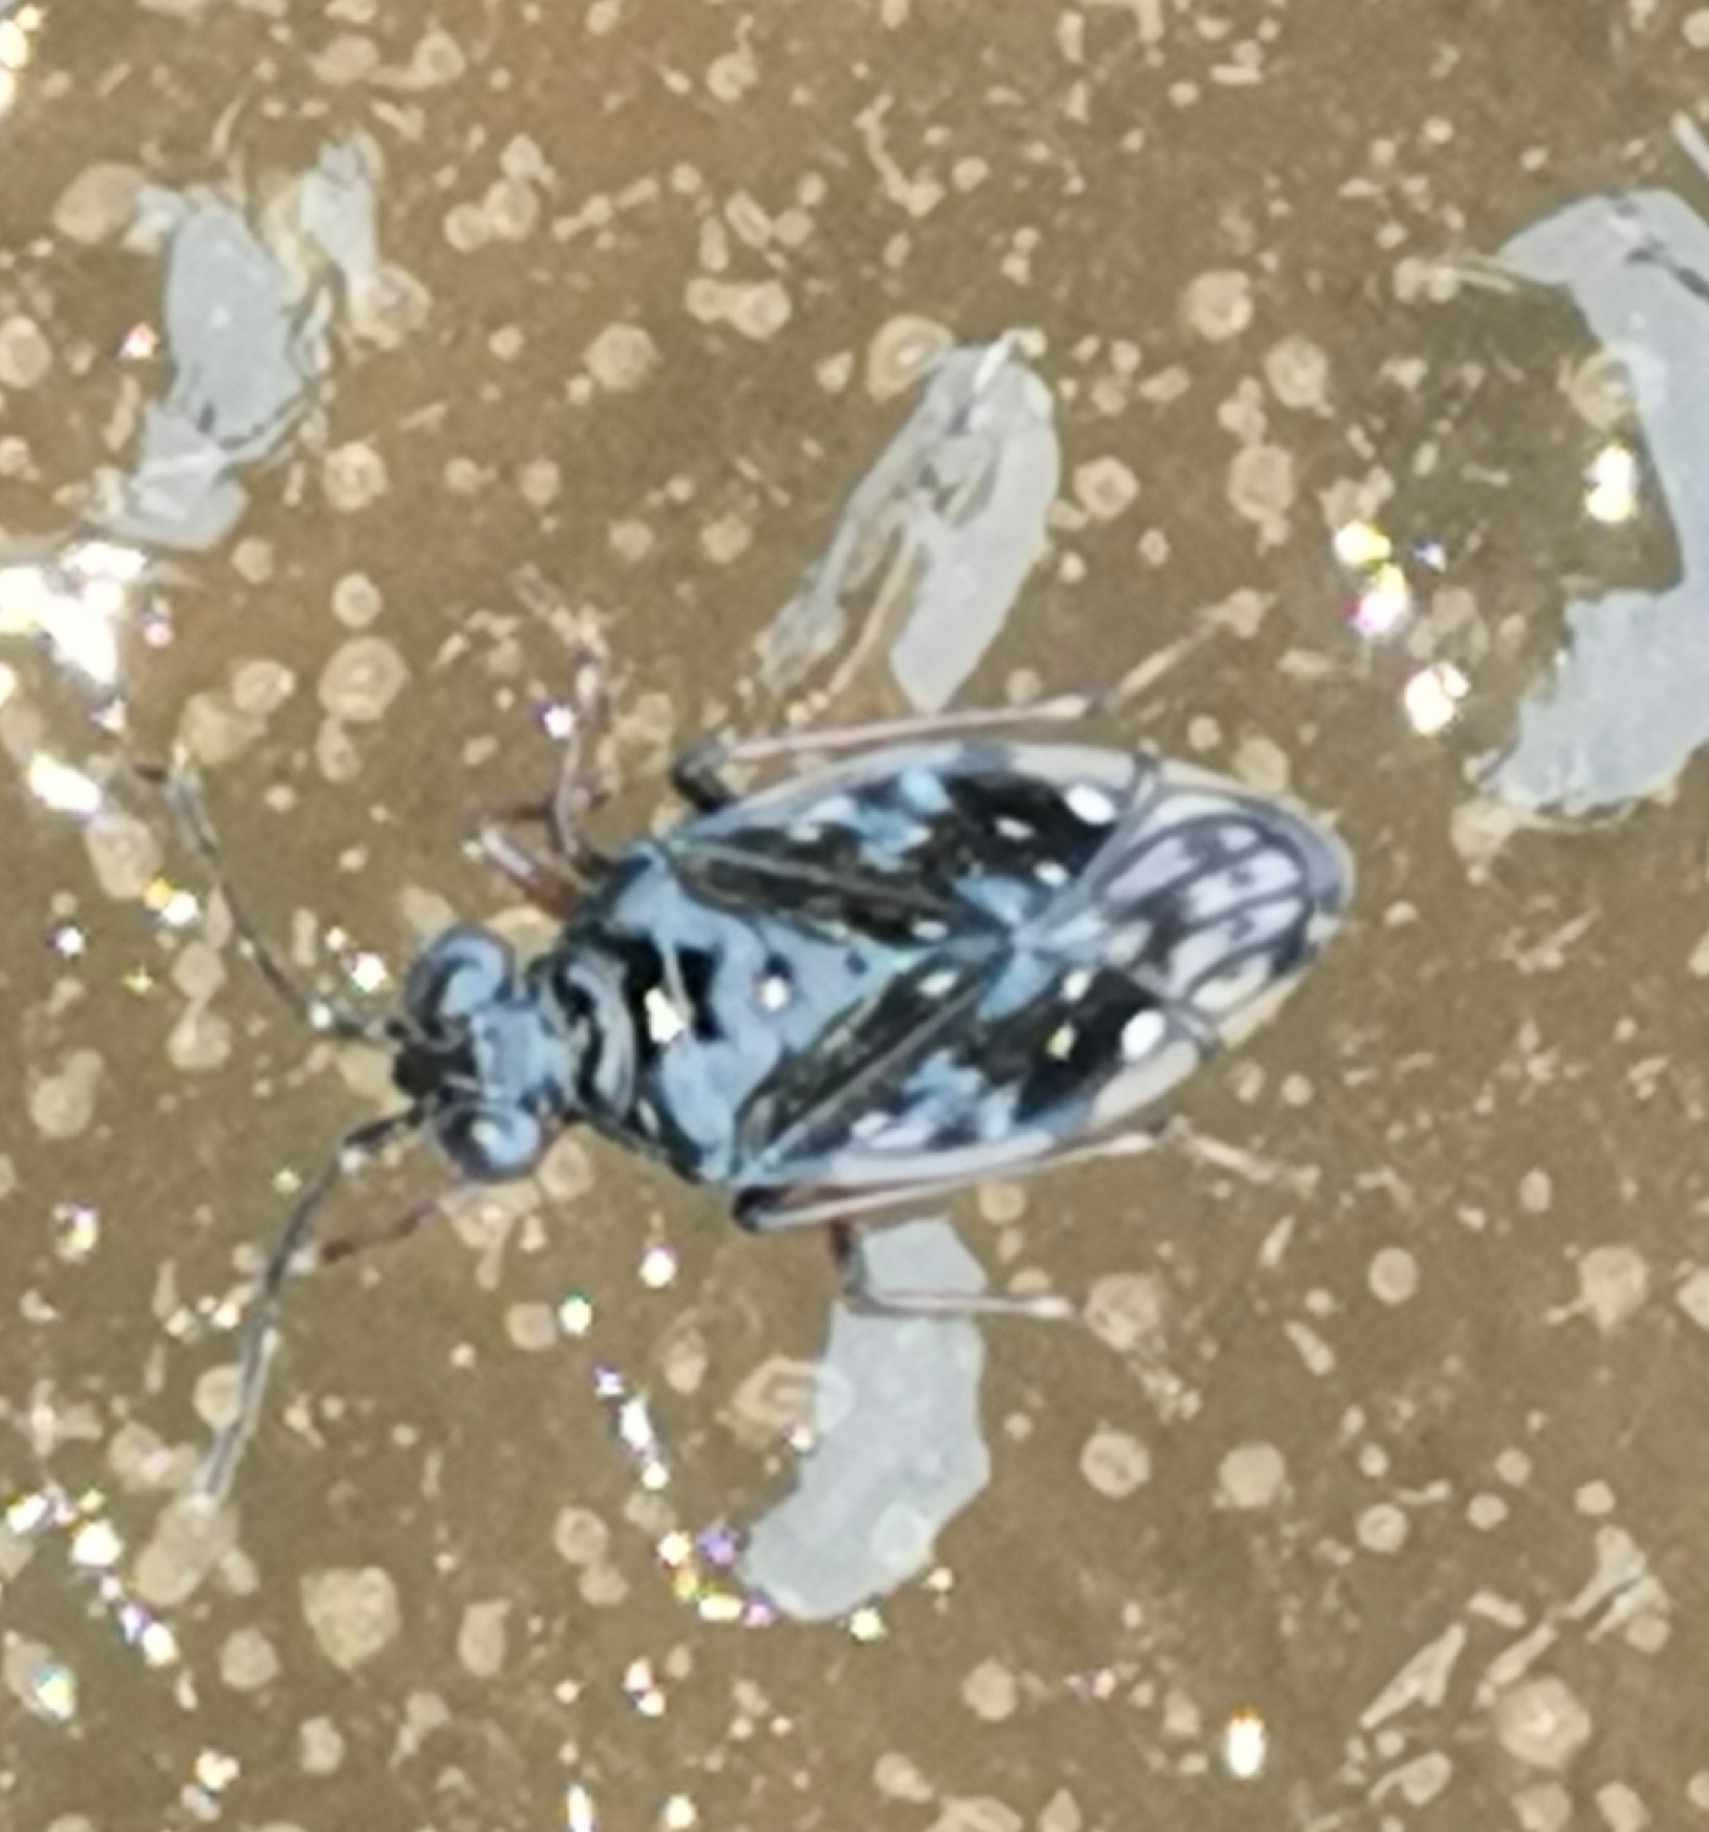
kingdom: Animalia
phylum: Arthropoda
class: Insecta
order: Hemiptera
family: Saldidae
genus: Chartoscirta
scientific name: Chartoscirta cincta
